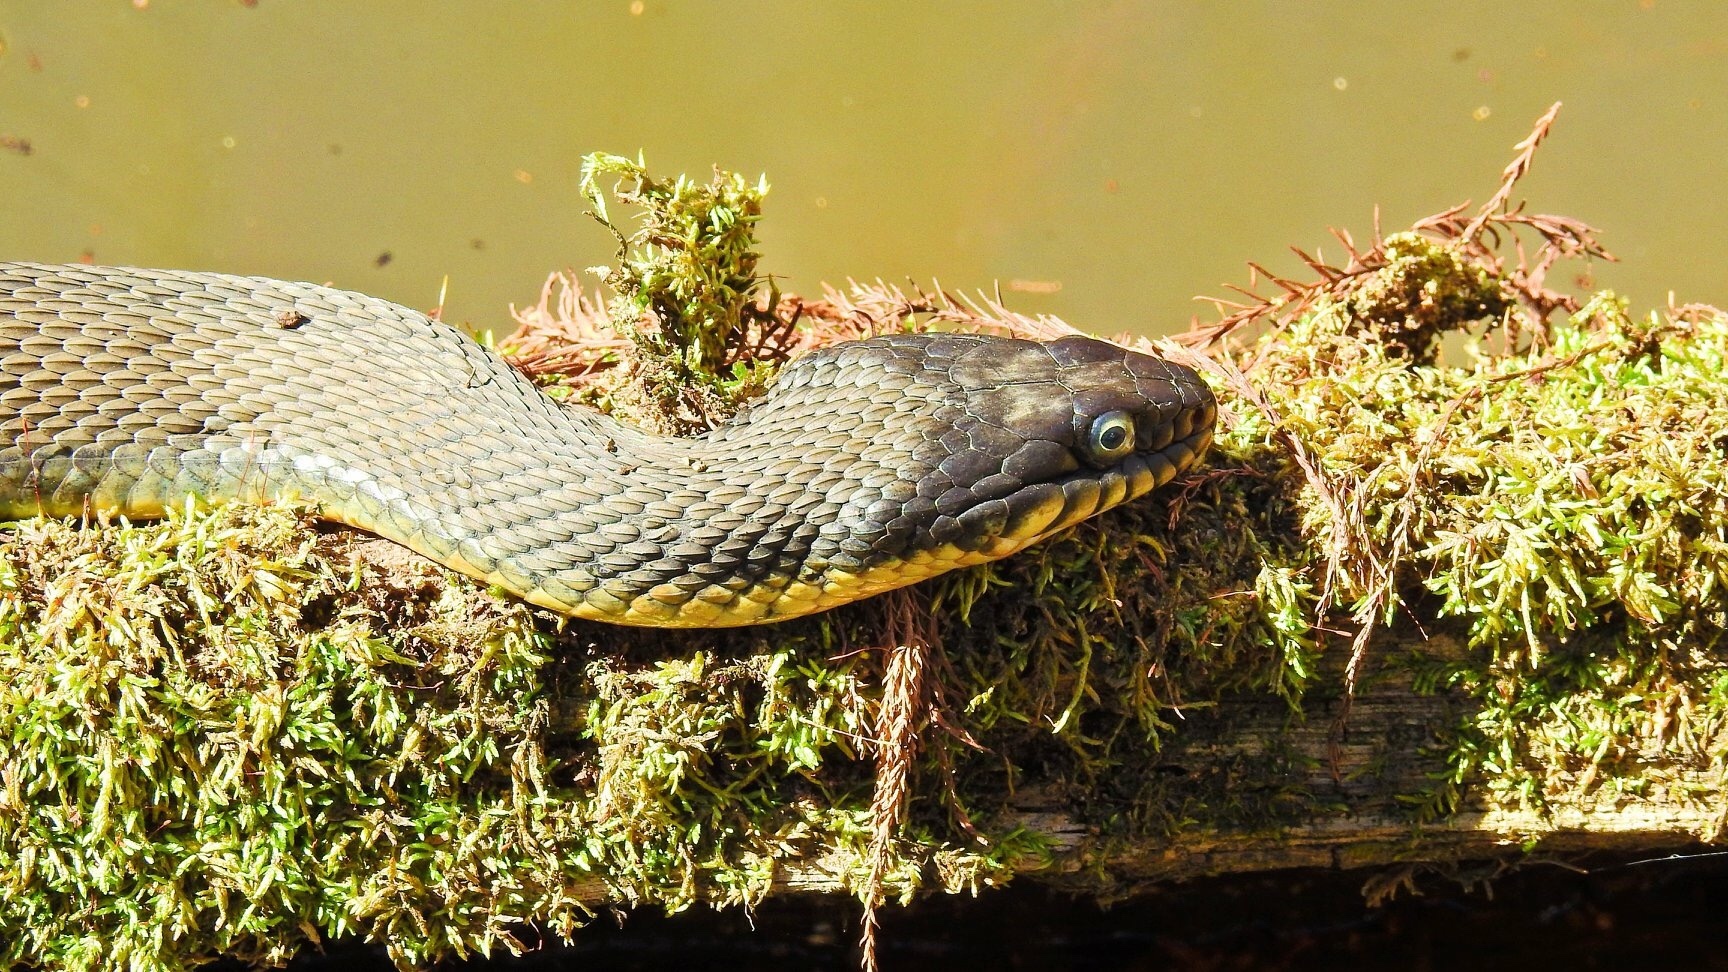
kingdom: Animalia
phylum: Chordata
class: Squamata
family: Colubridae
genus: Nerodia
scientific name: Nerodia erythrogaster
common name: Plainbelly water snake
